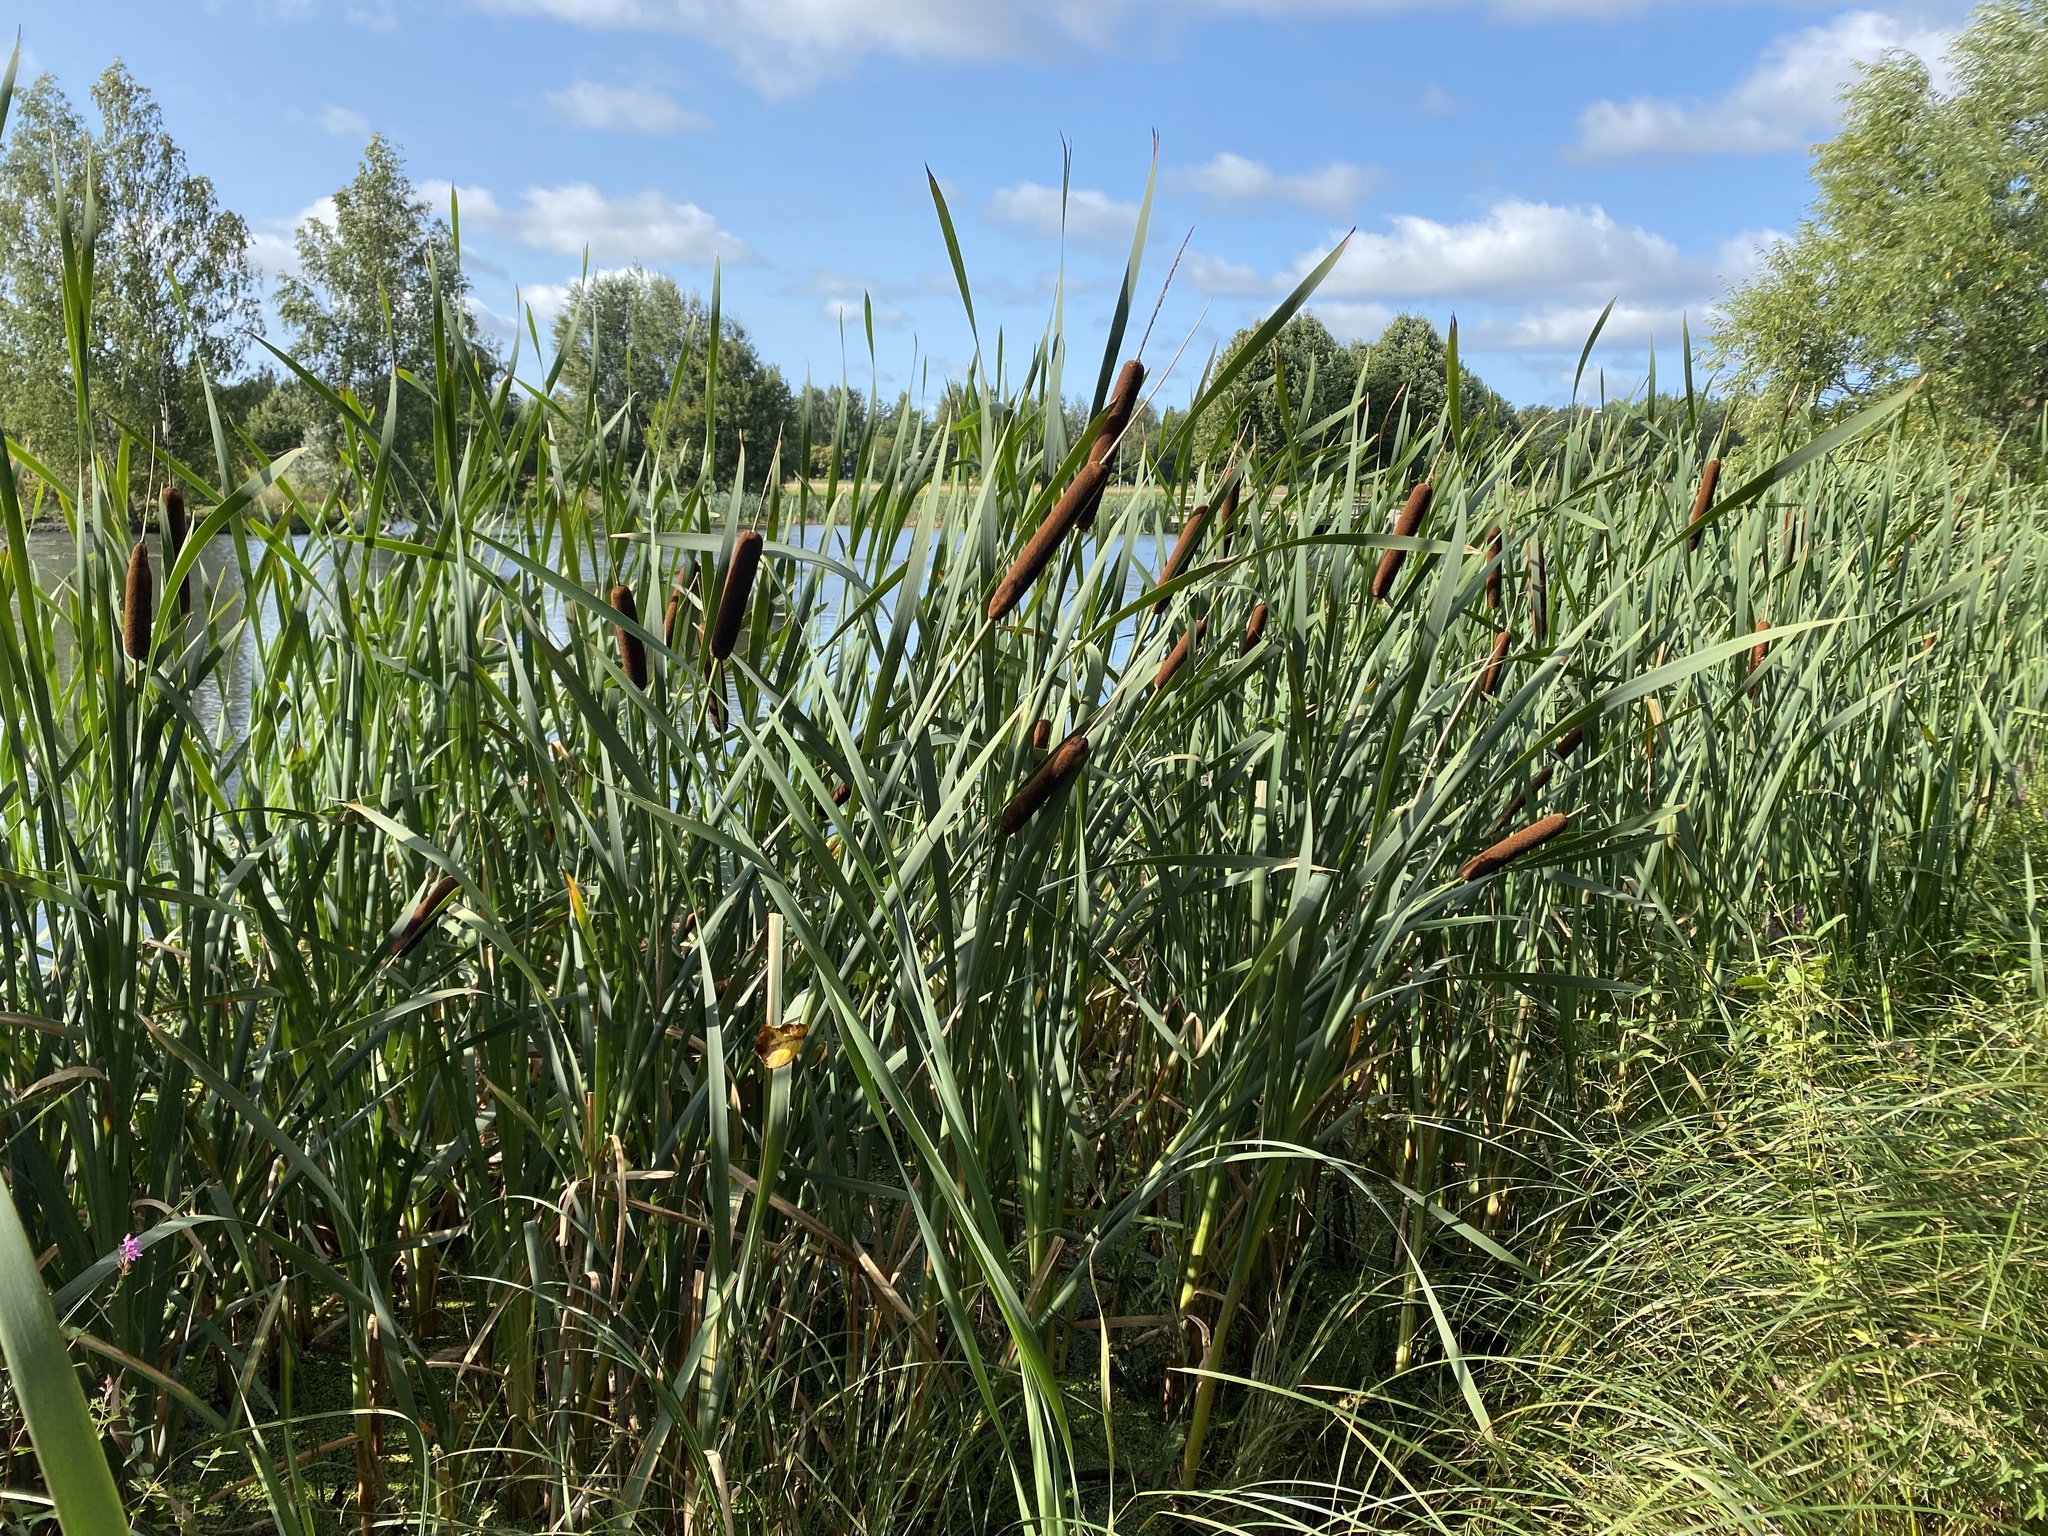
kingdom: Plantae
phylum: Tracheophyta
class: Liliopsida
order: Poales
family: Typhaceae
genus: Typha
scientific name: Typha latifolia
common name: Broadleaf cattail
